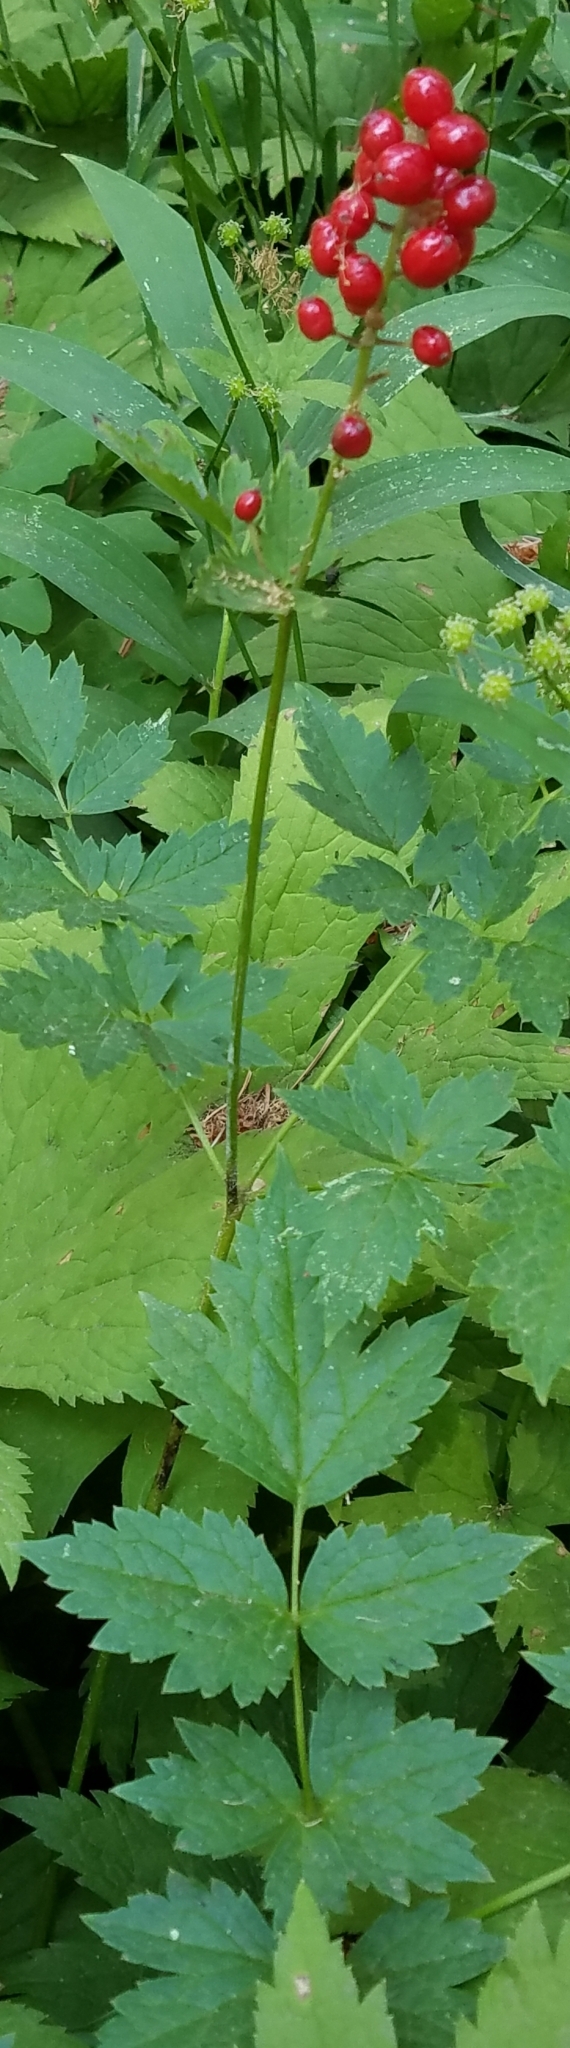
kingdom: Plantae
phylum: Tracheophyta
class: Magnoliopsida
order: Ranunculales
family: Ranunculaceae
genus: Actaea
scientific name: Actaea rubra
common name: Red baneberry
